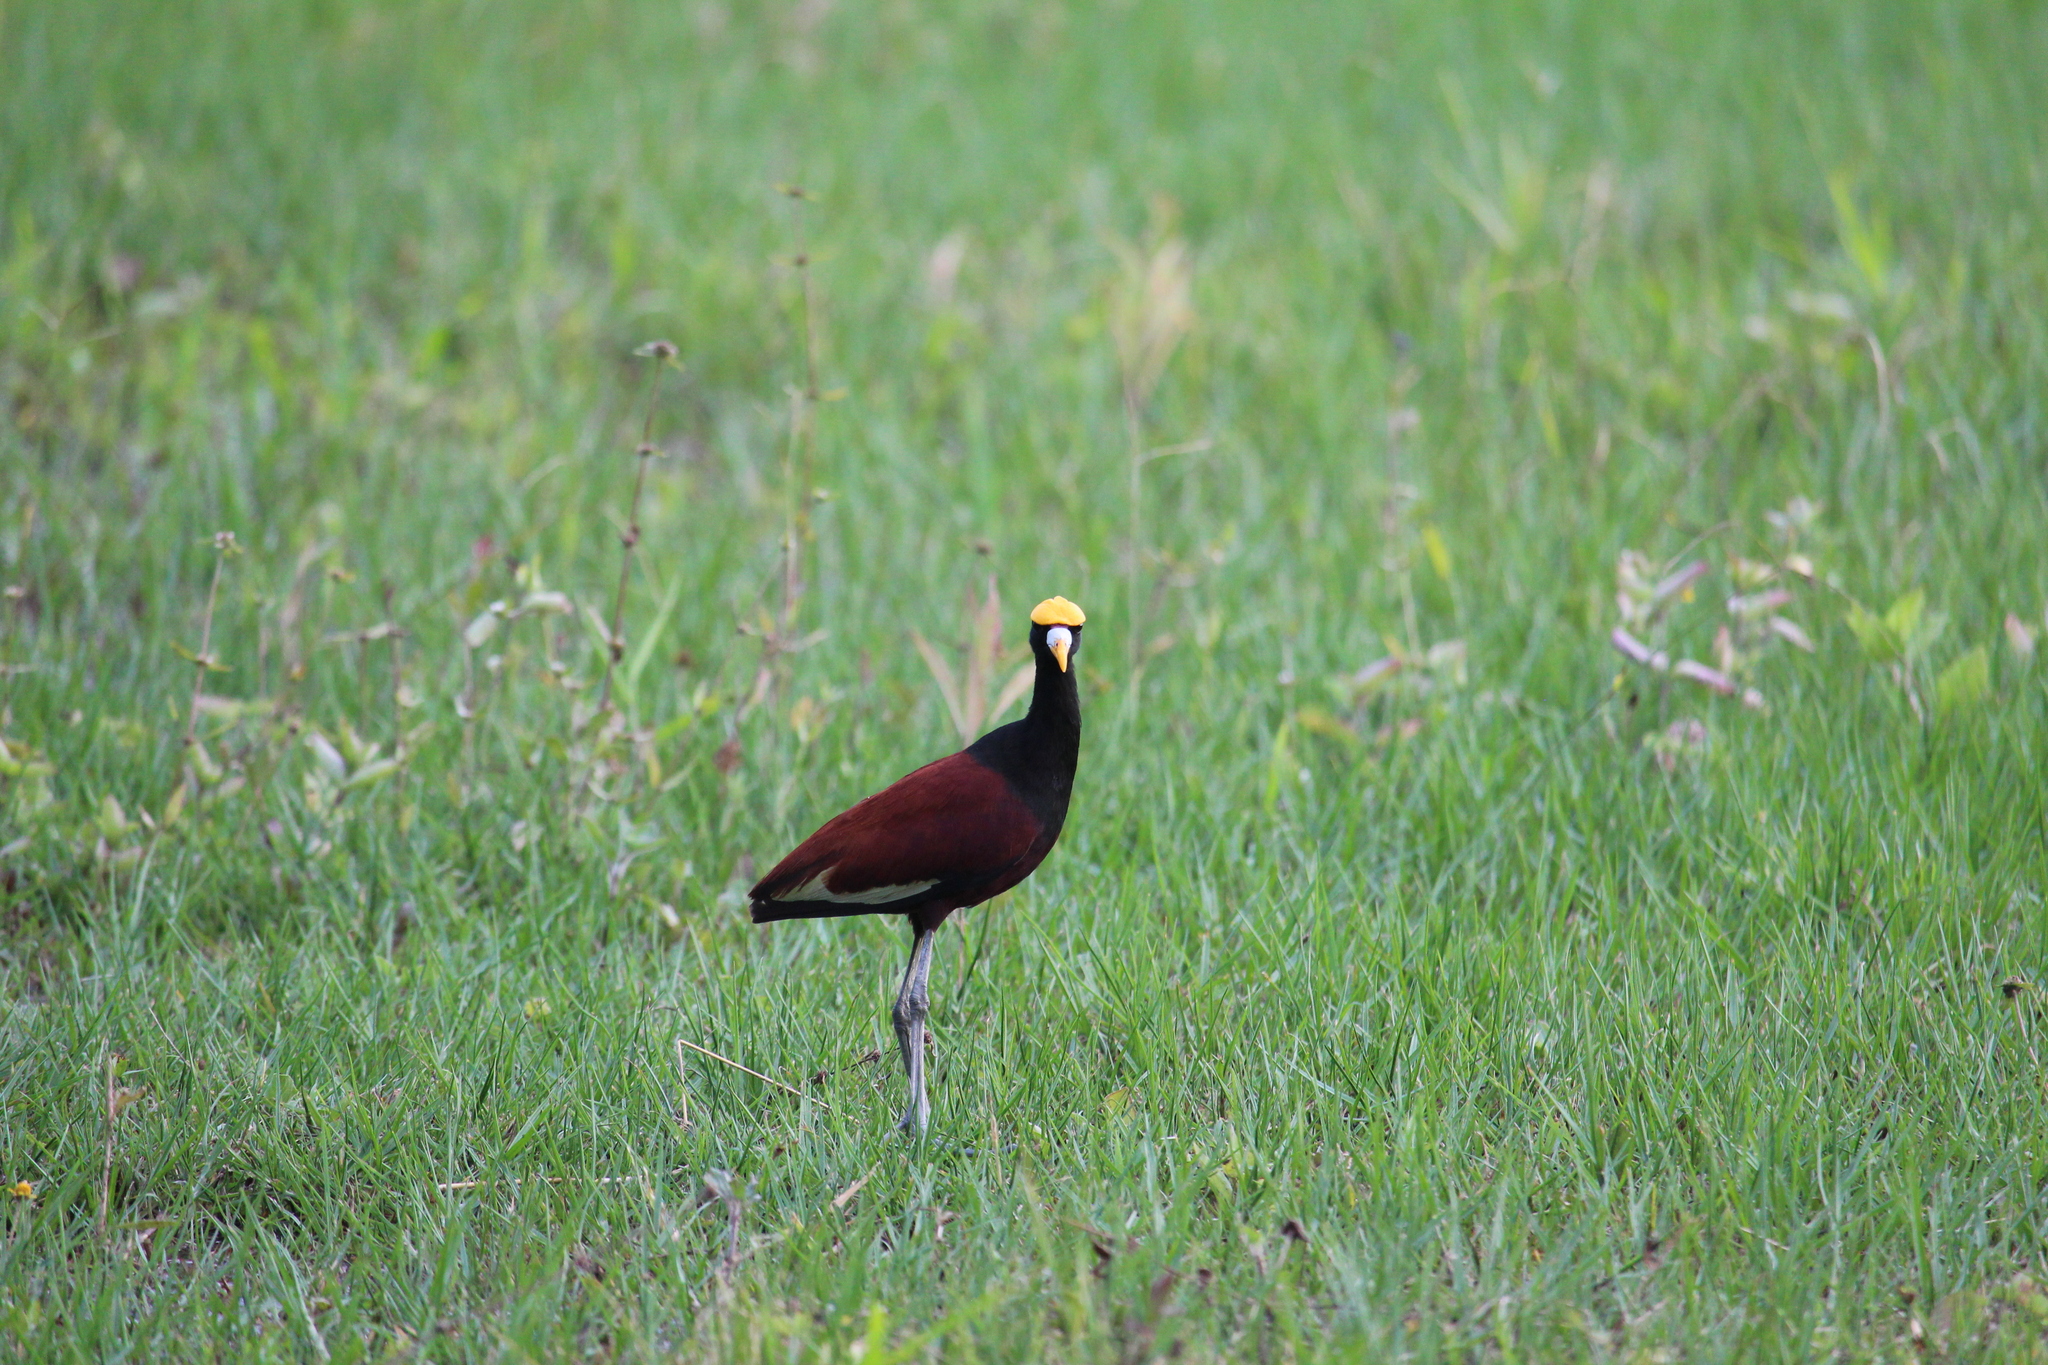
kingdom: Animalia
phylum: Chordata
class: Aves
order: Charadriiformes
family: Jacanidae
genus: Jacana
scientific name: Jacana spinosa
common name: Northern jacana
